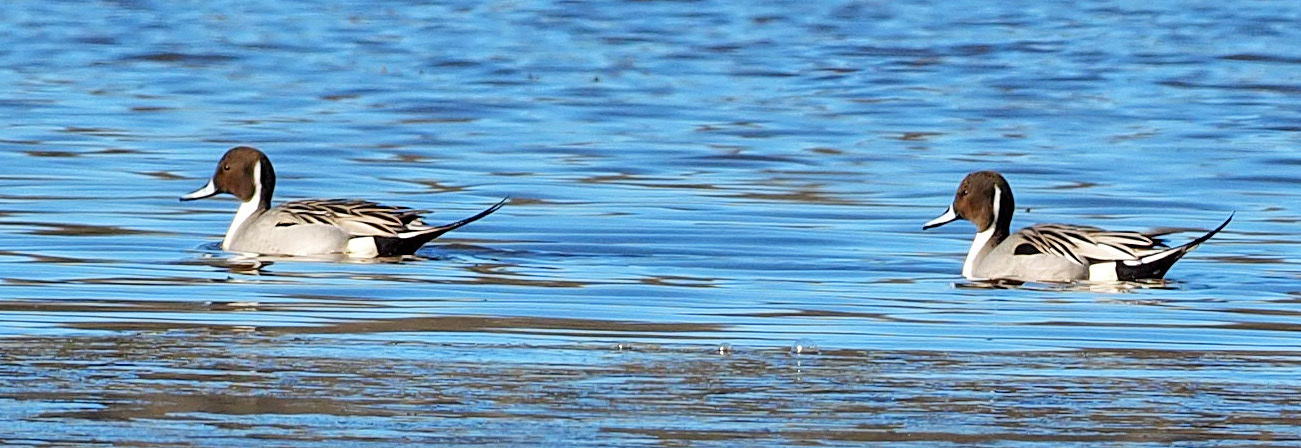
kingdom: Animalia
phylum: Chordata
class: Aves
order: Anseriformes
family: Anatidae
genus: Anas
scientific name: Anas acuta
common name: Northern pintail
